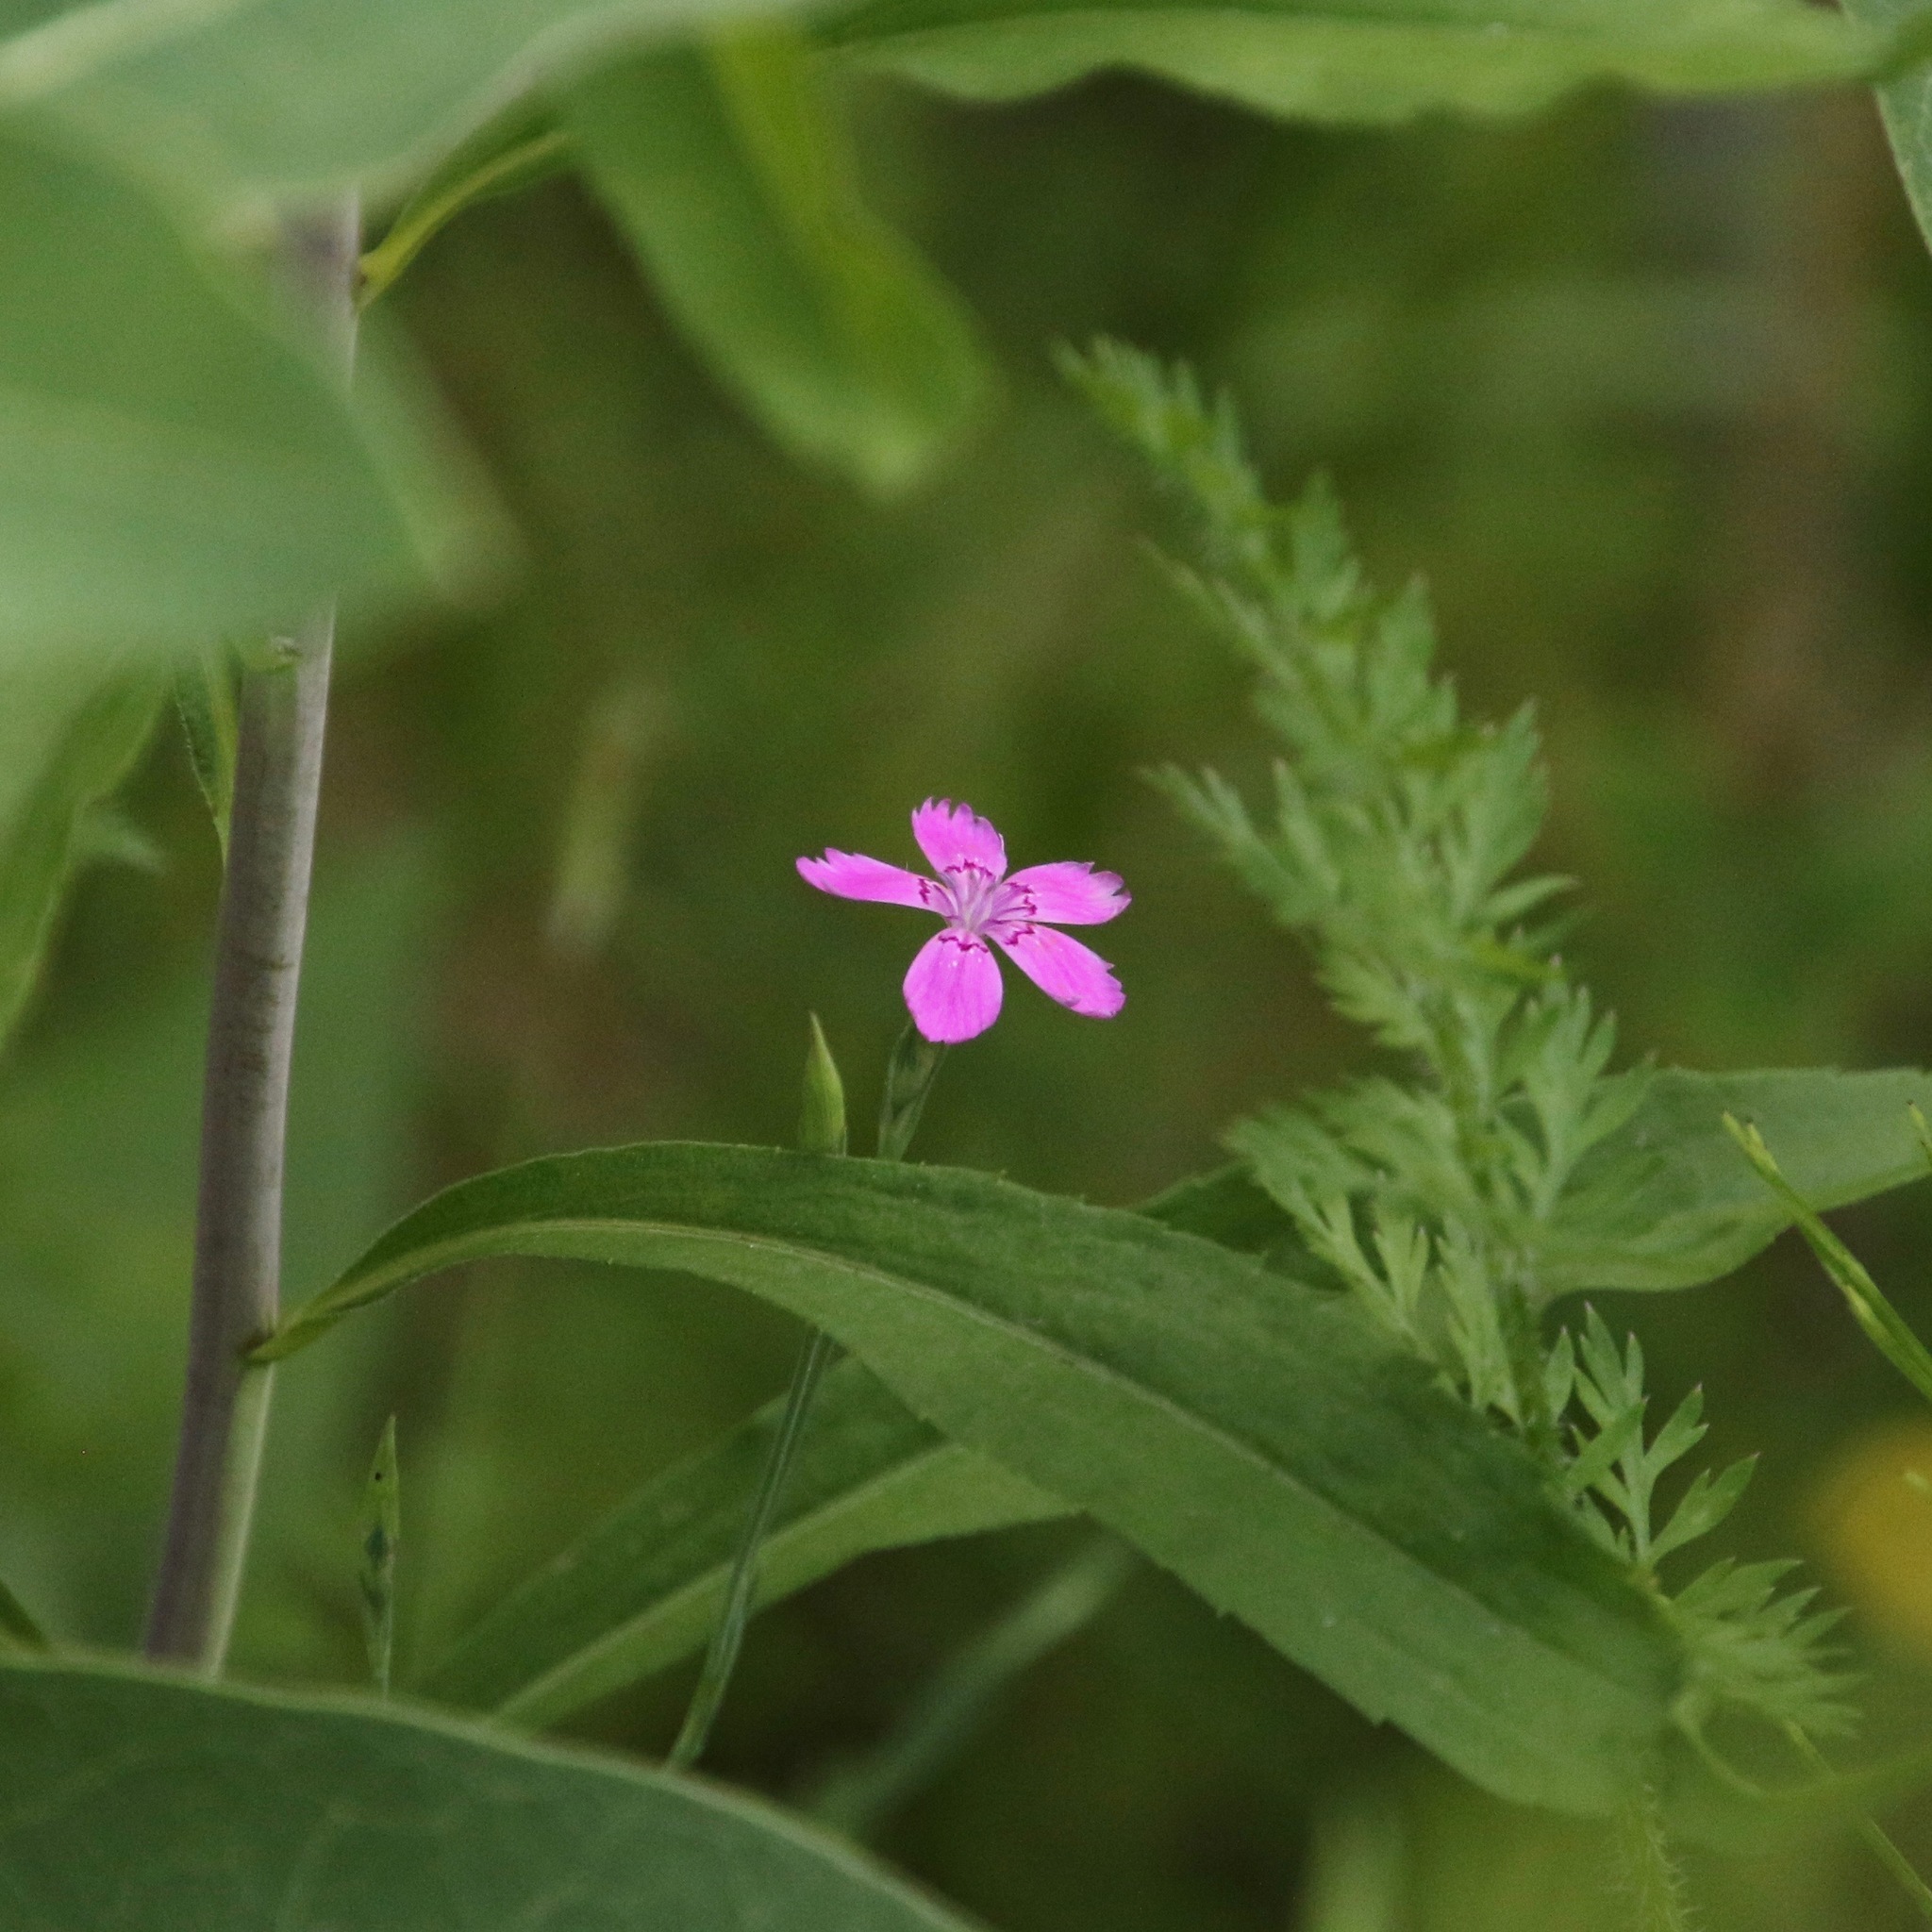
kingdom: Plantae
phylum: Tracheophyta
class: Magnoliopsida
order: Caryophyllales
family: Caryophyllaceae
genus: Dianthus
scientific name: Dianthus deltoides
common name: Maiden pink
